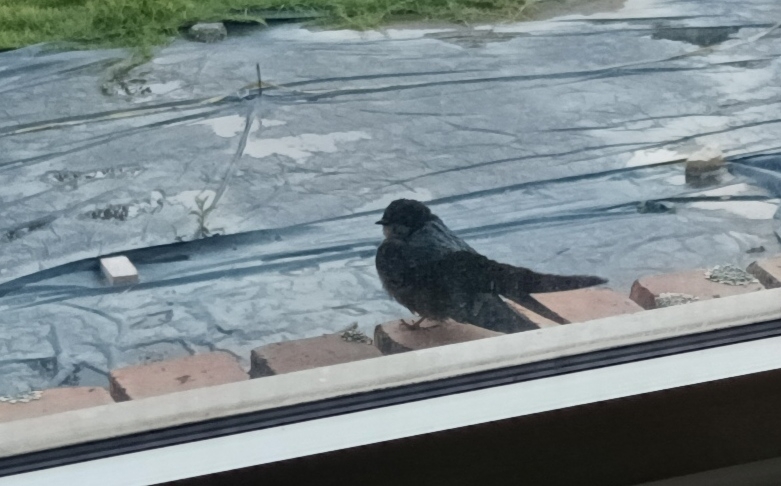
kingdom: Animalia
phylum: Chordata
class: Aves
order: Passeriformes
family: Hirundinidae
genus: Notiochelidon
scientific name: Notiochelidon murina
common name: Brown-bellied swallow
